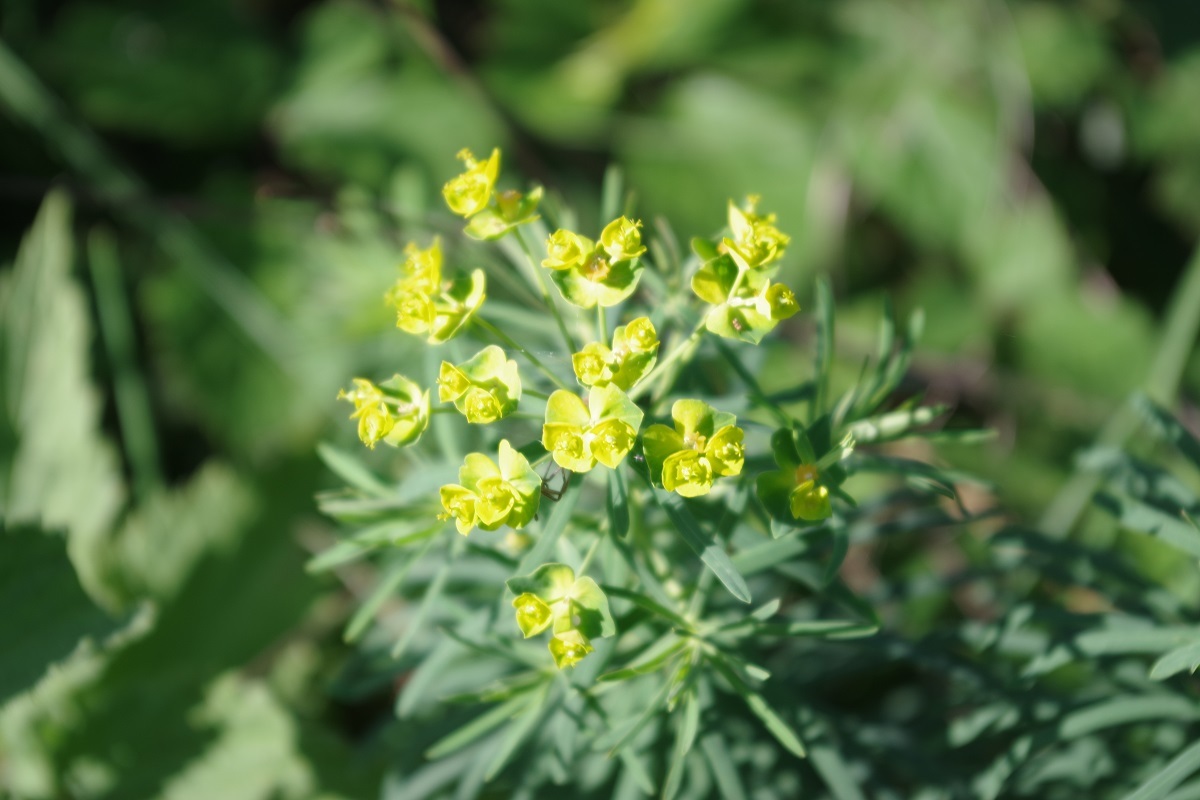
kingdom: Plantae
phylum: Tracheophyta
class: Magnoliopsida
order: Malpighiales
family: Euphorbiaceae
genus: Euphorbia
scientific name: Euphorbia cyparissias
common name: Cypress spurge
